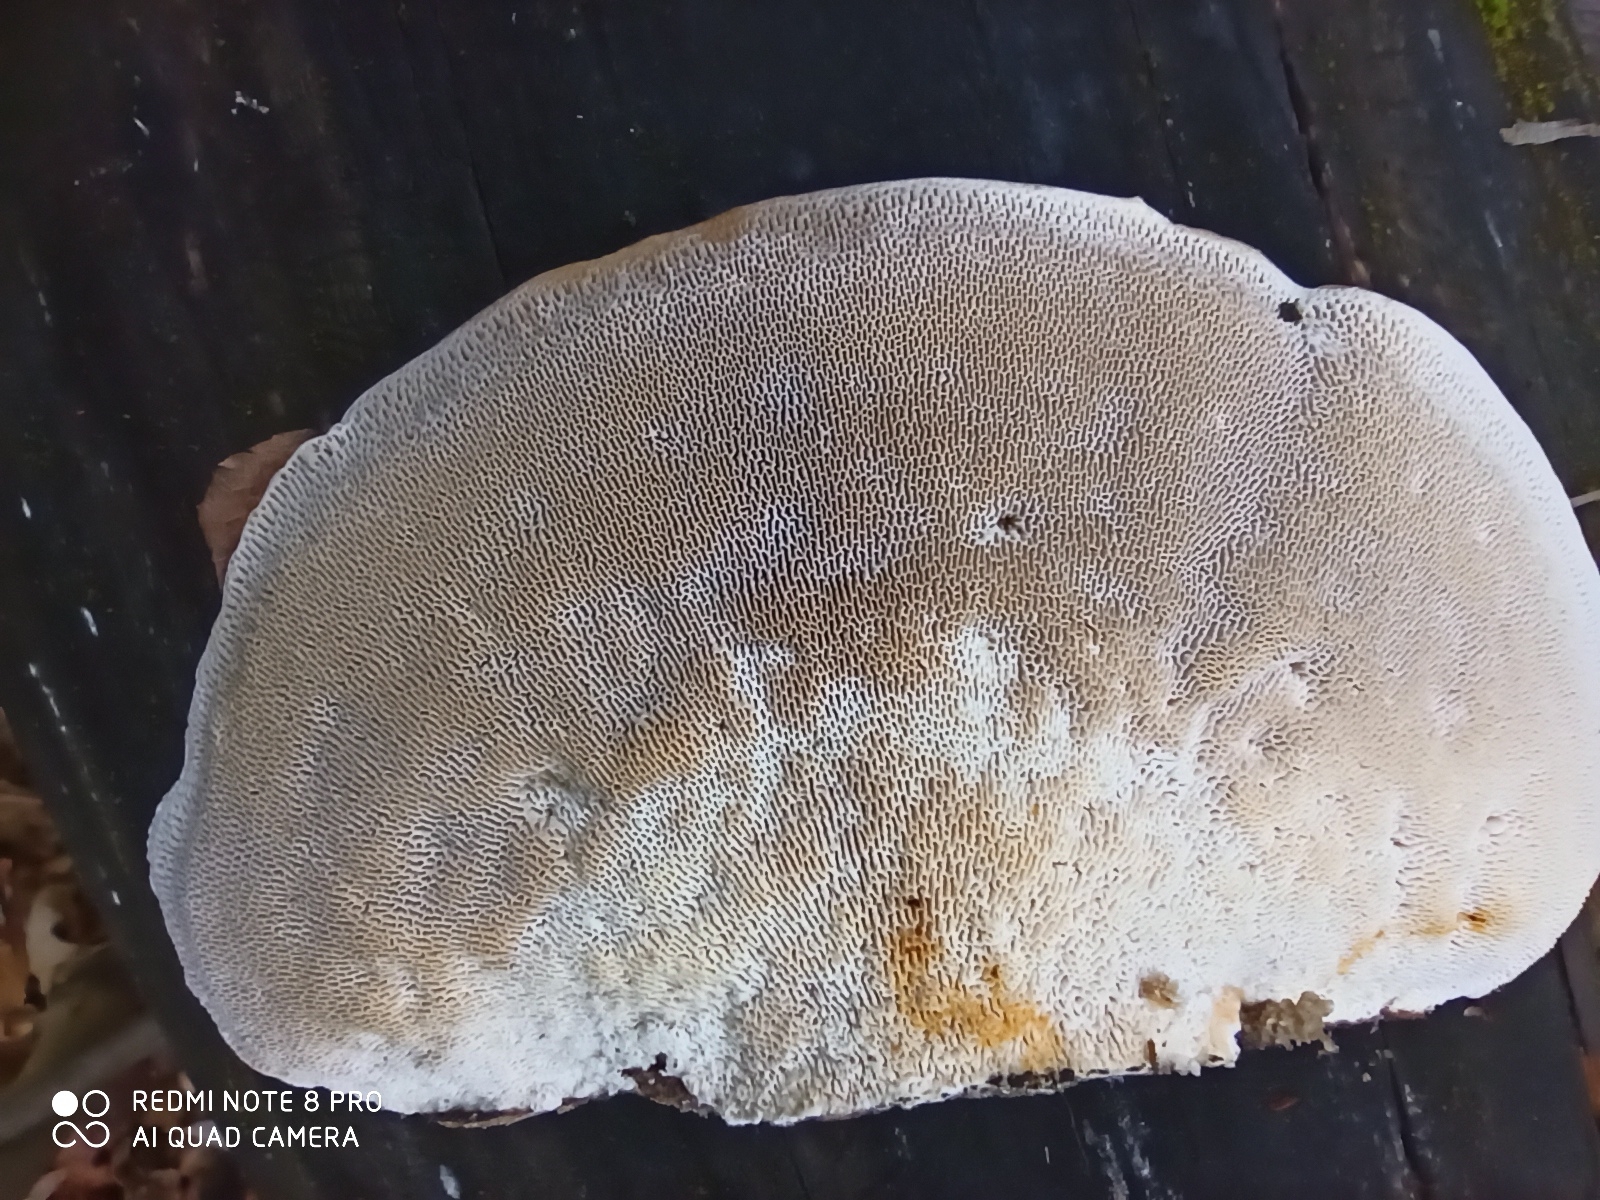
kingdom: Fungi
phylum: Basidiomycota
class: Agaricomycetes
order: Polyporales
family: Polyporaceae
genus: Trametes
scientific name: Trametes gibbosa
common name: Lumpy bracket
